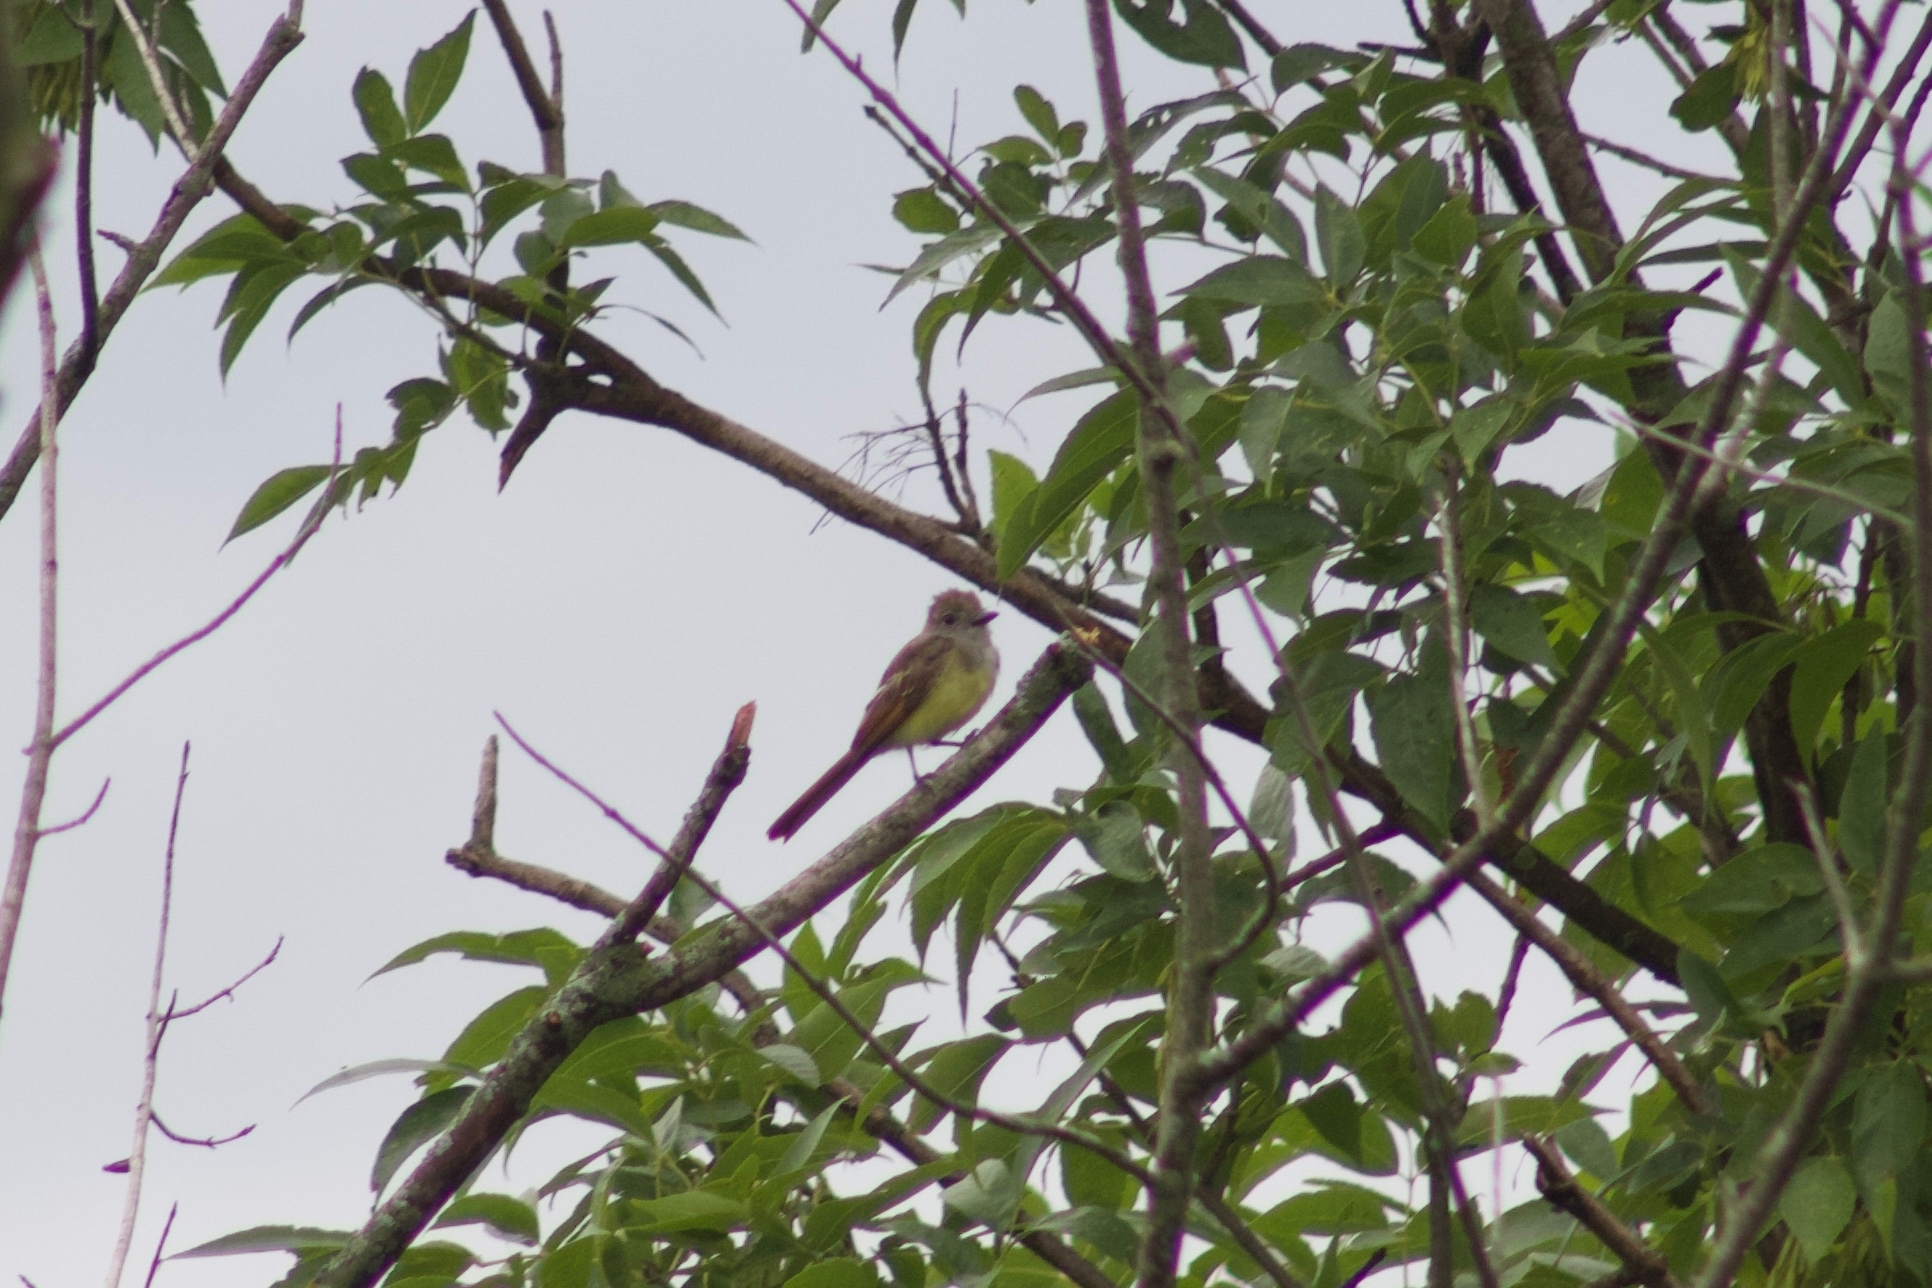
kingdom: Animalia
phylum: Chordata
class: Aves
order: Passeriformes
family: Tyrannidae
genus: Myiarchus
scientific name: Myiarchus crinitus
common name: Great crested flycatcher
